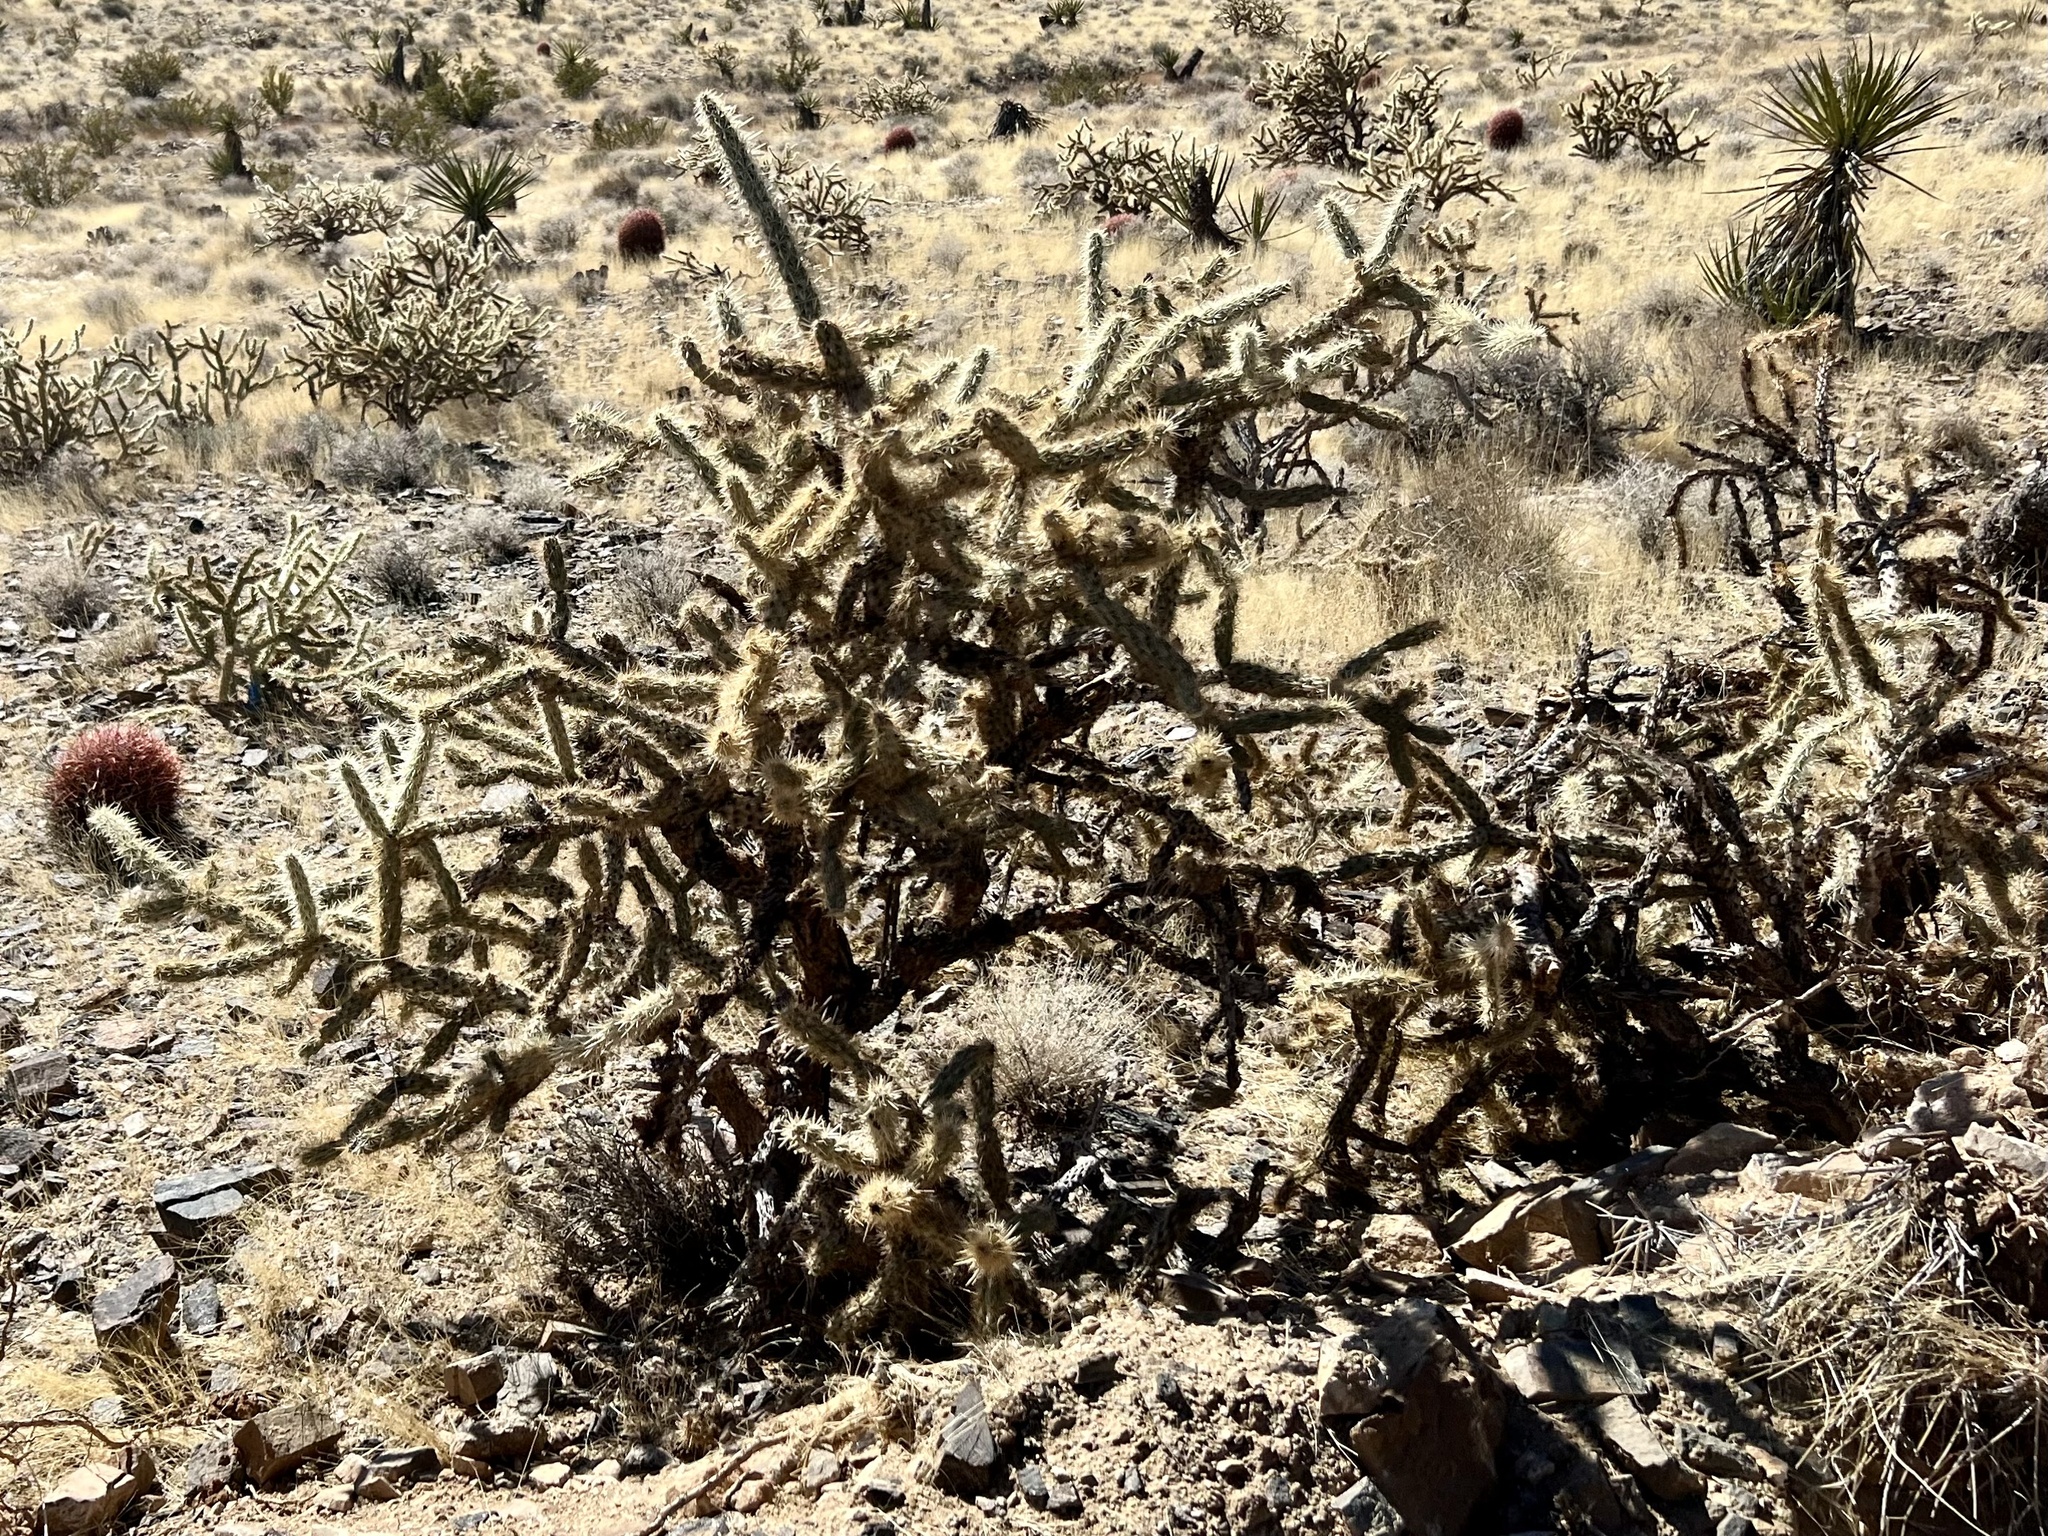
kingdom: Plantae
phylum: Tracheophyta
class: Magnoliopsida
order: Caryophyllales
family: Cactaceae
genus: Cylindropuntia
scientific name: Cylindropuntia acanthocarpa
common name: Buckhorn cholla
